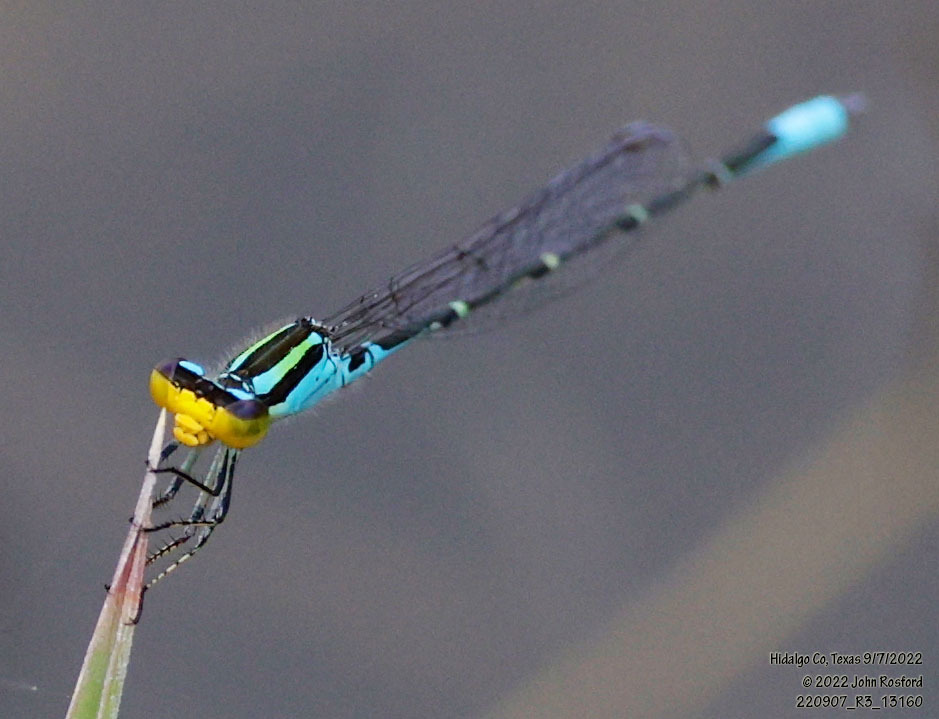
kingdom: Animalia
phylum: Arthropoda
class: Insecta
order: Odonata
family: Coenagrionidae
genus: Neoerythromma
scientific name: Neoerythromma cultellatum
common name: Caribbean yellowface
